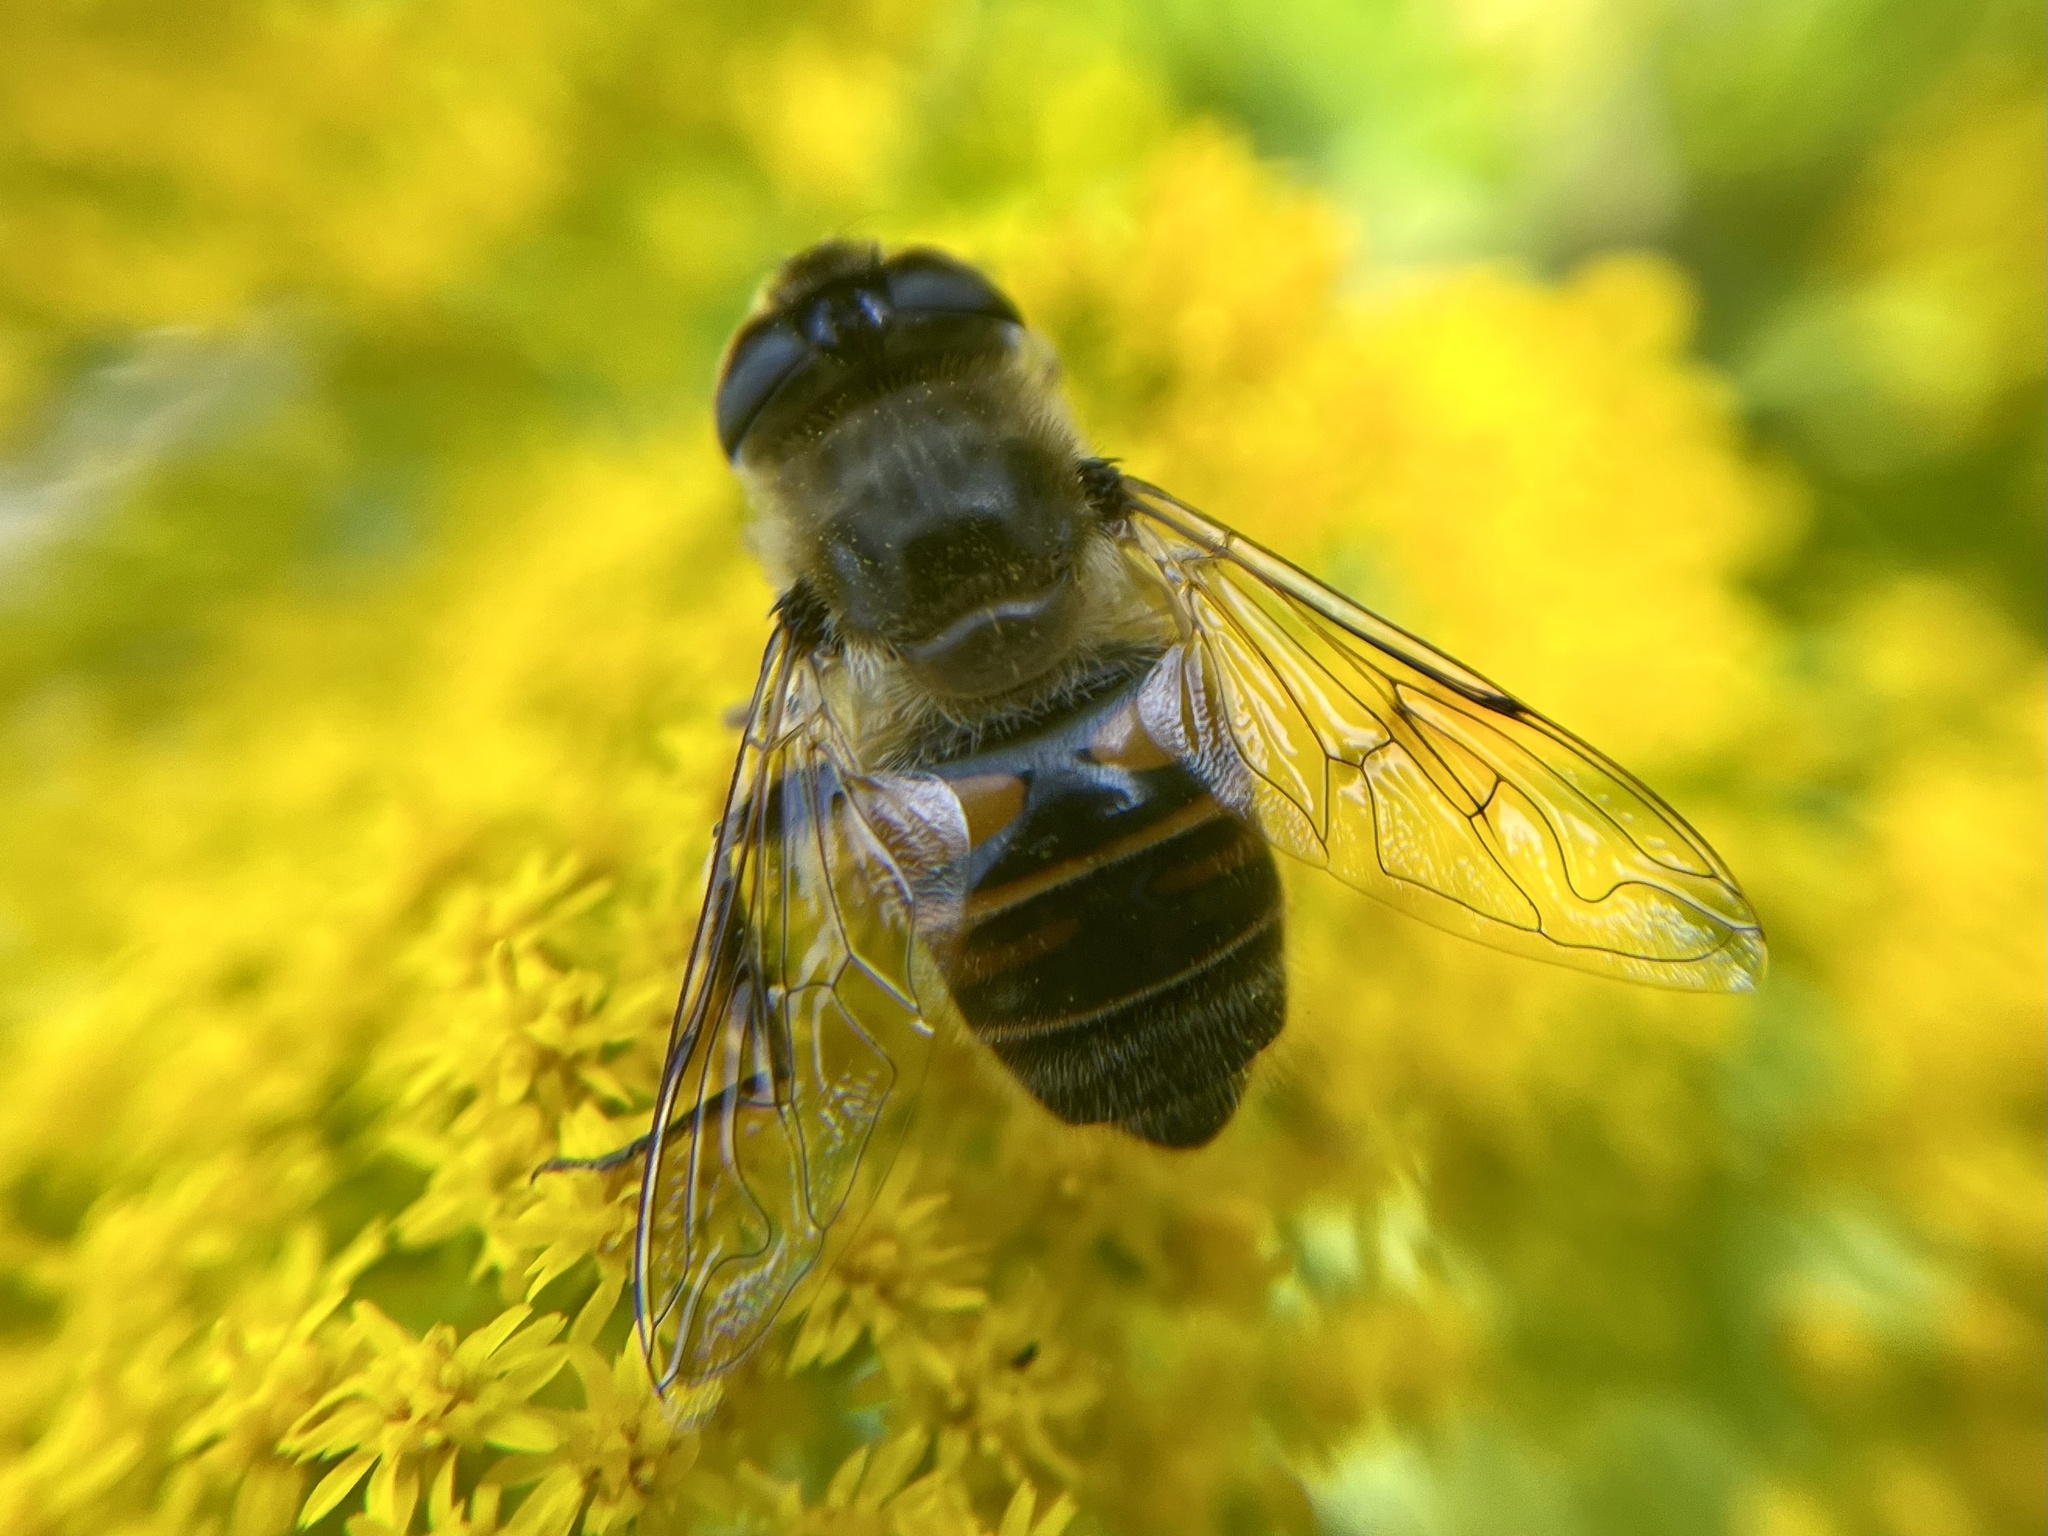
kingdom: Animalia
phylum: Arthropoda
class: Insecta
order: Diptera
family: Syrphidae
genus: Eristalis
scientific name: Eristalis tenax
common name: Drone fly
